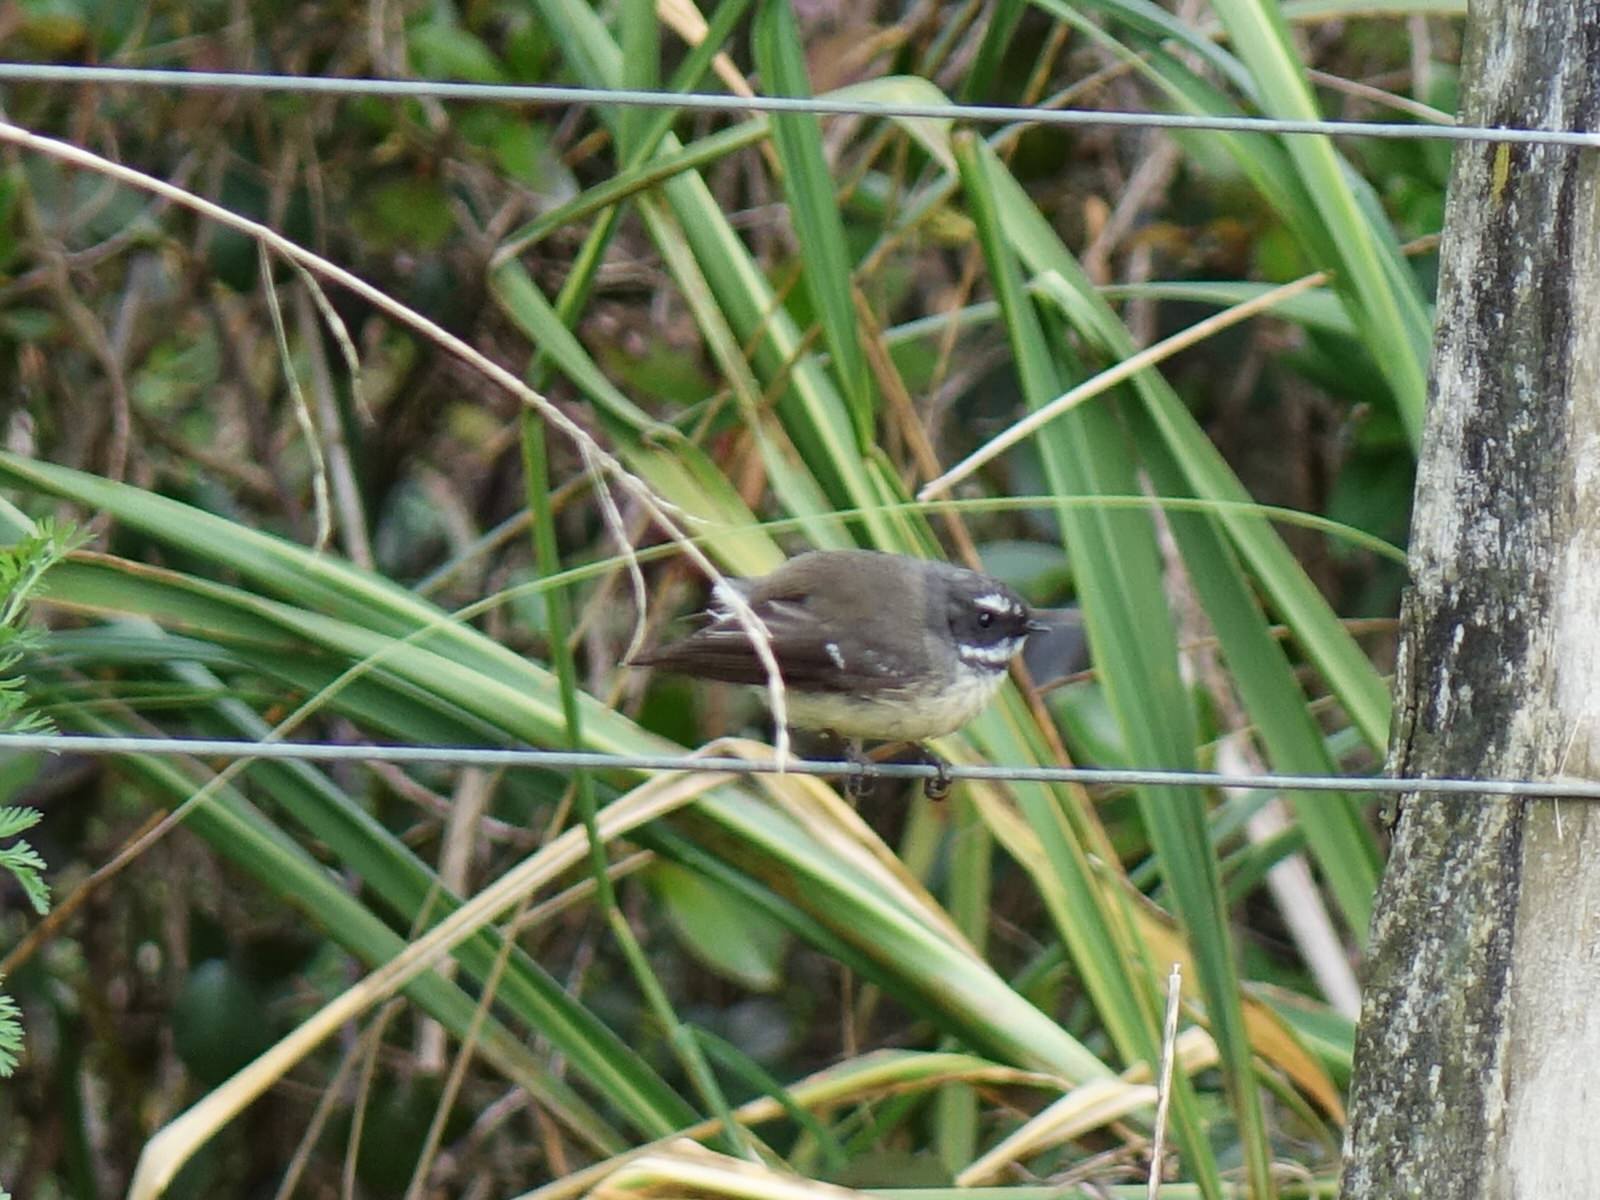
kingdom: Animalia
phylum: Chordata
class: Aves
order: Passeriformes
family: Rhipiduridae
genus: Rhipidura
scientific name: Rhipidura fuliginosa
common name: New zealand fantail
